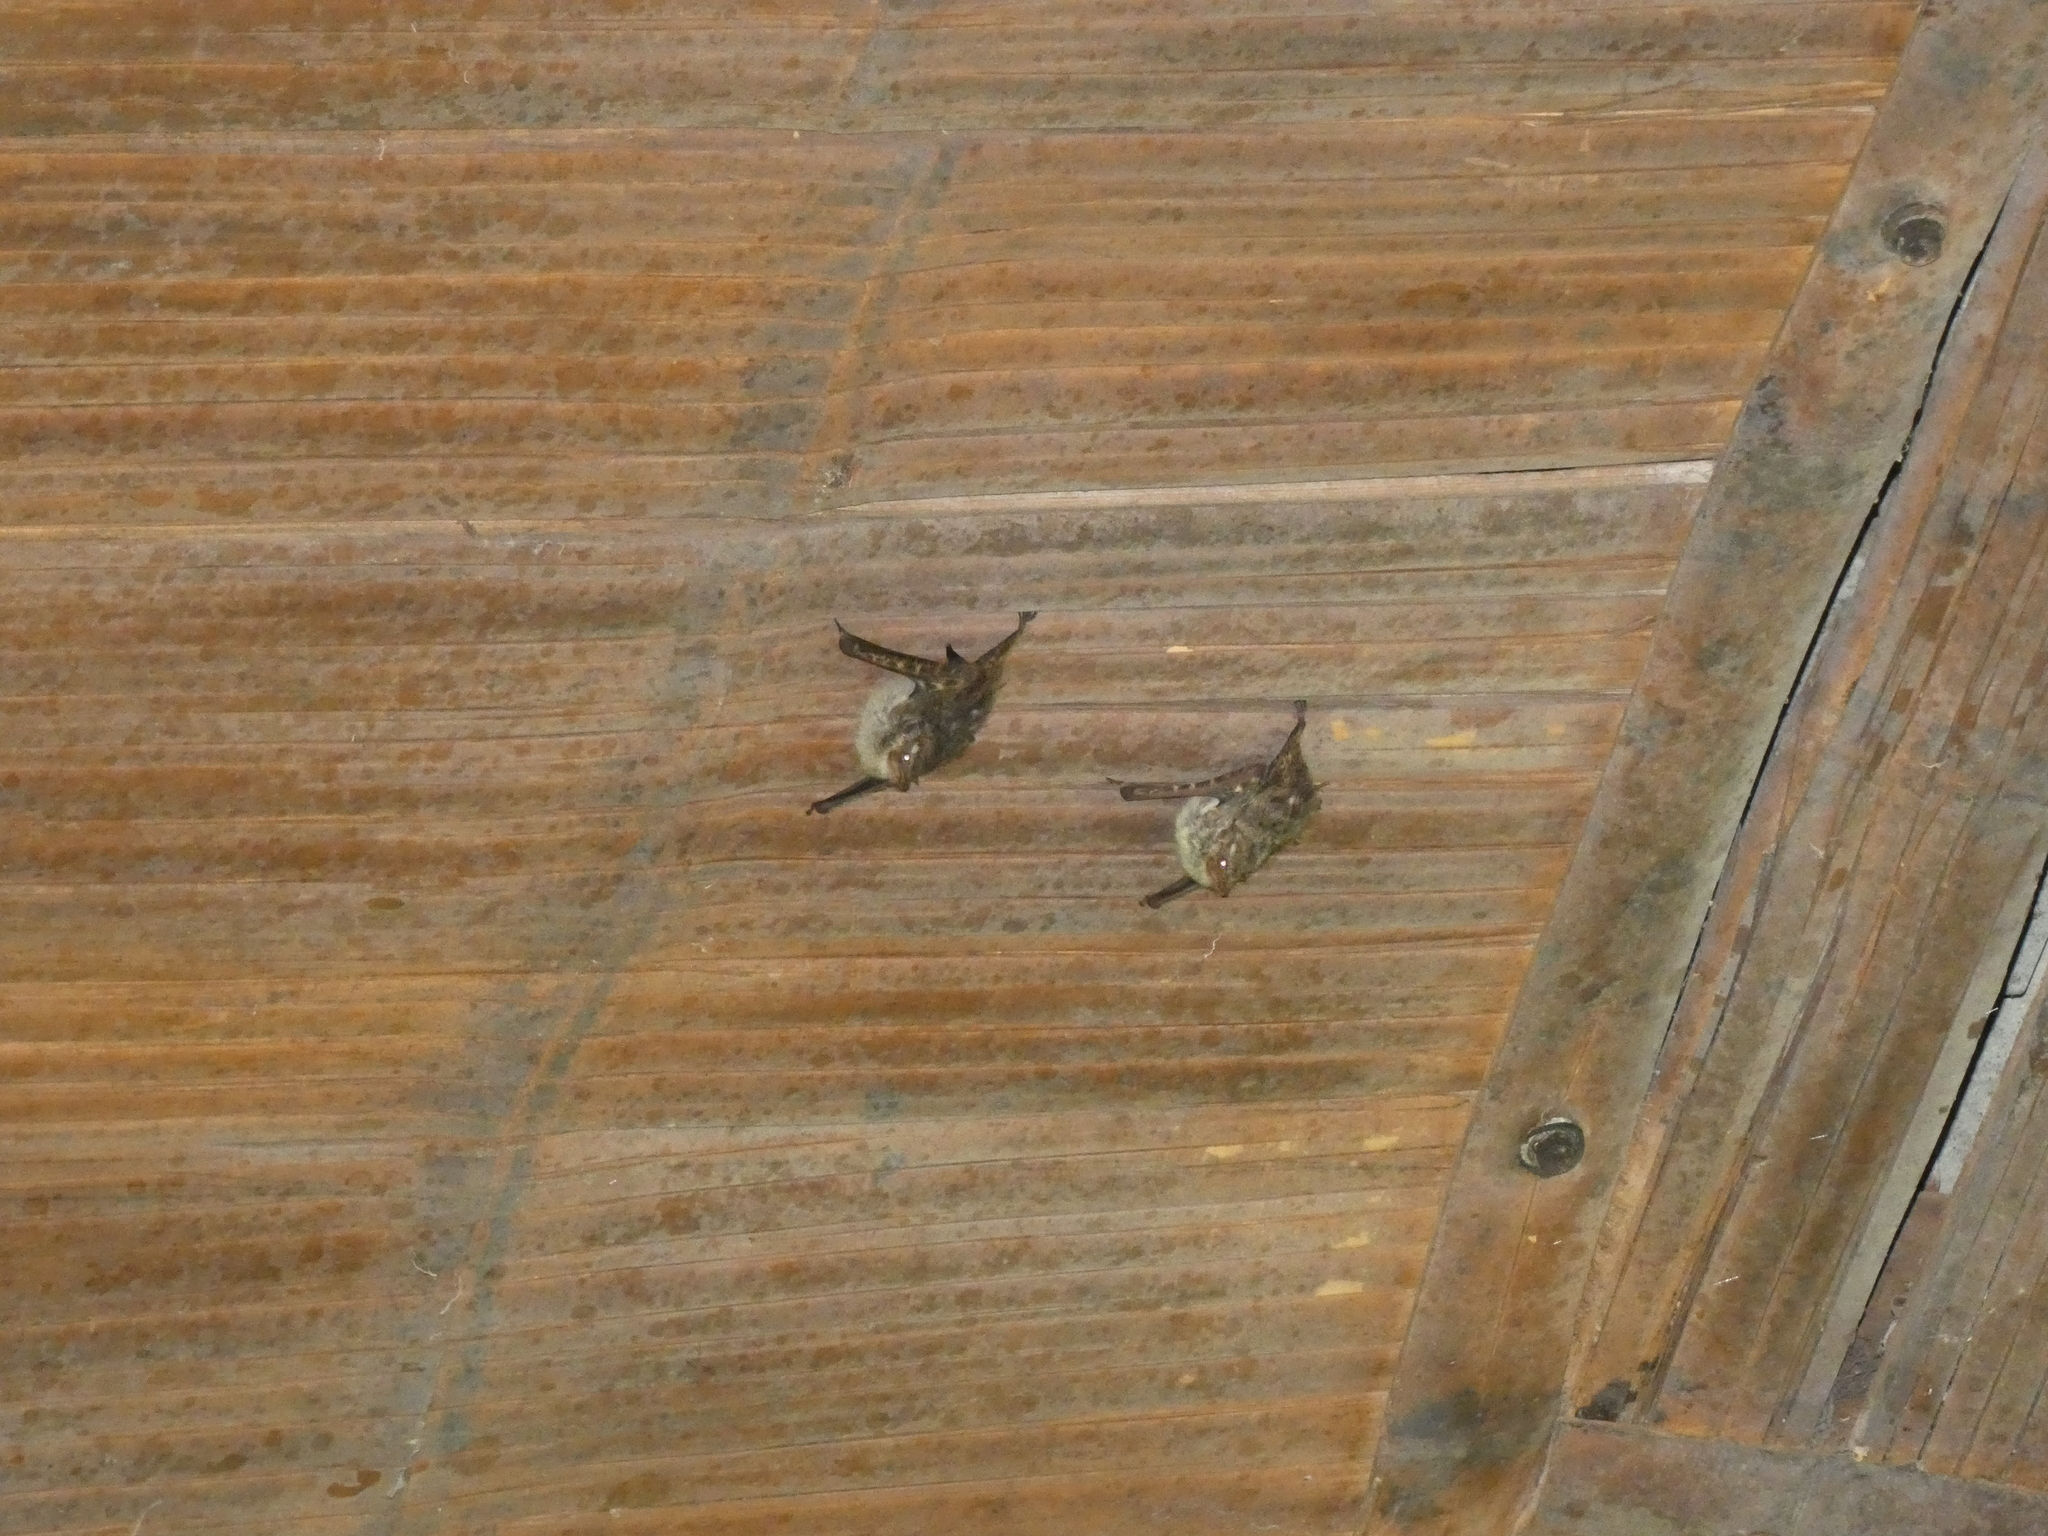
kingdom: Animalia
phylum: Chordata
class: Mammalia
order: Chiroptera
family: Emballonuridae
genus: Rhynchonycteris
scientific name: Rhynchonycteris naso
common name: Proboscis bat
